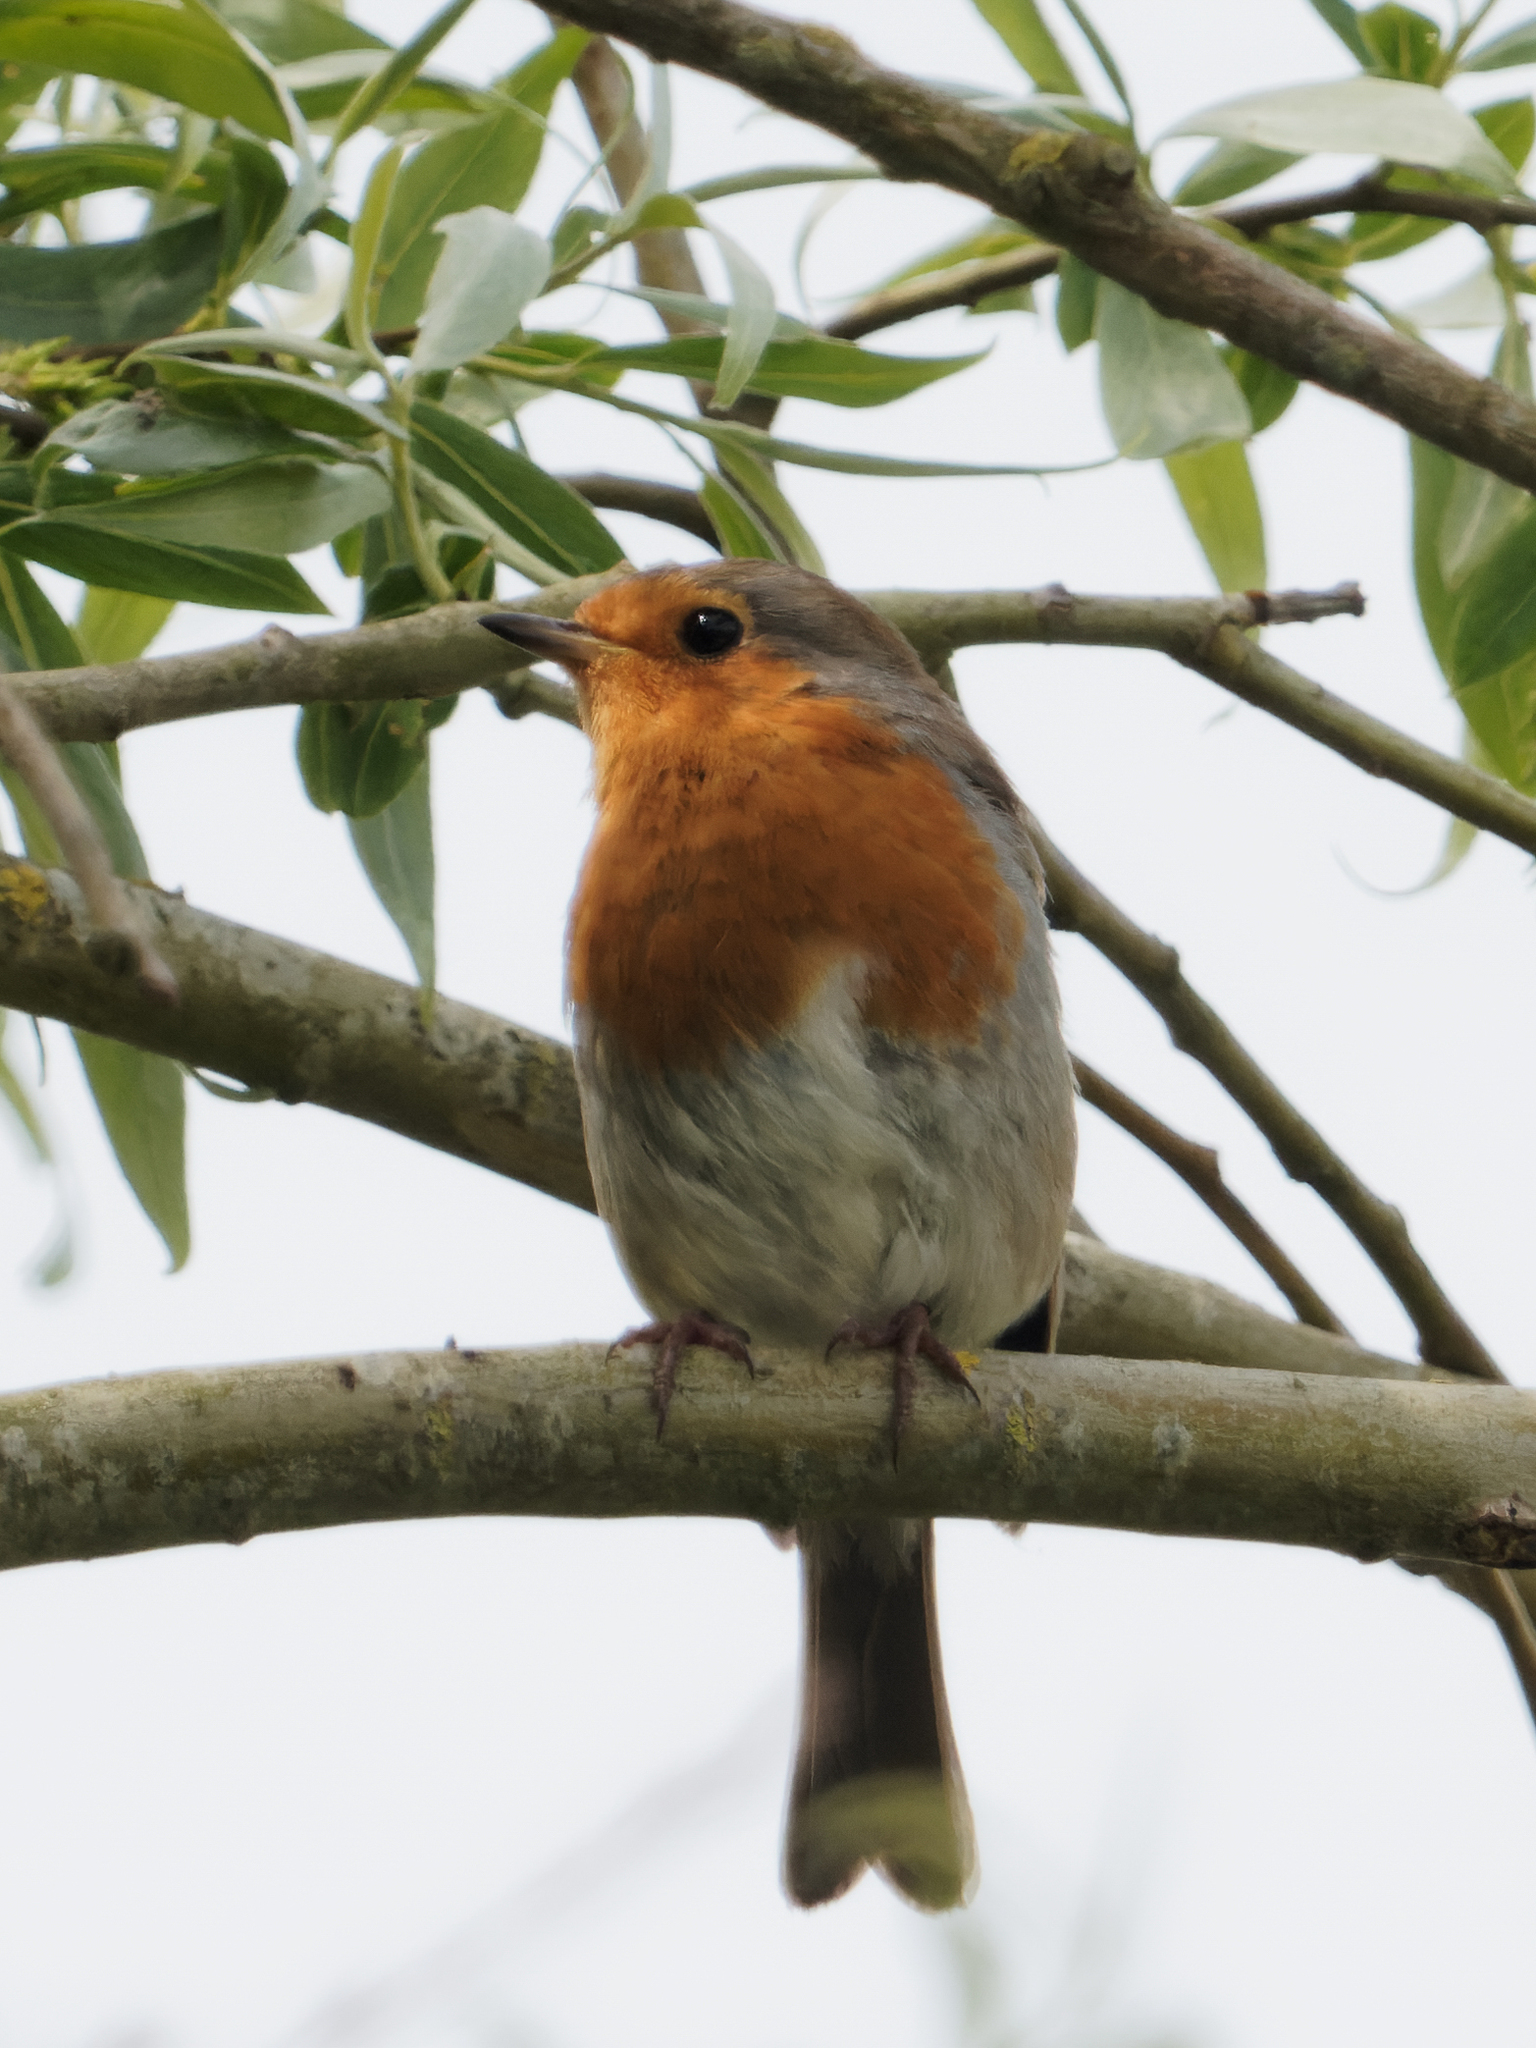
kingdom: Animalia
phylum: Chordata
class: Aves
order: Passeriformes
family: Muscicapidae
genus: Erithacus
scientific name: Erithacus rubecula
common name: European robin
